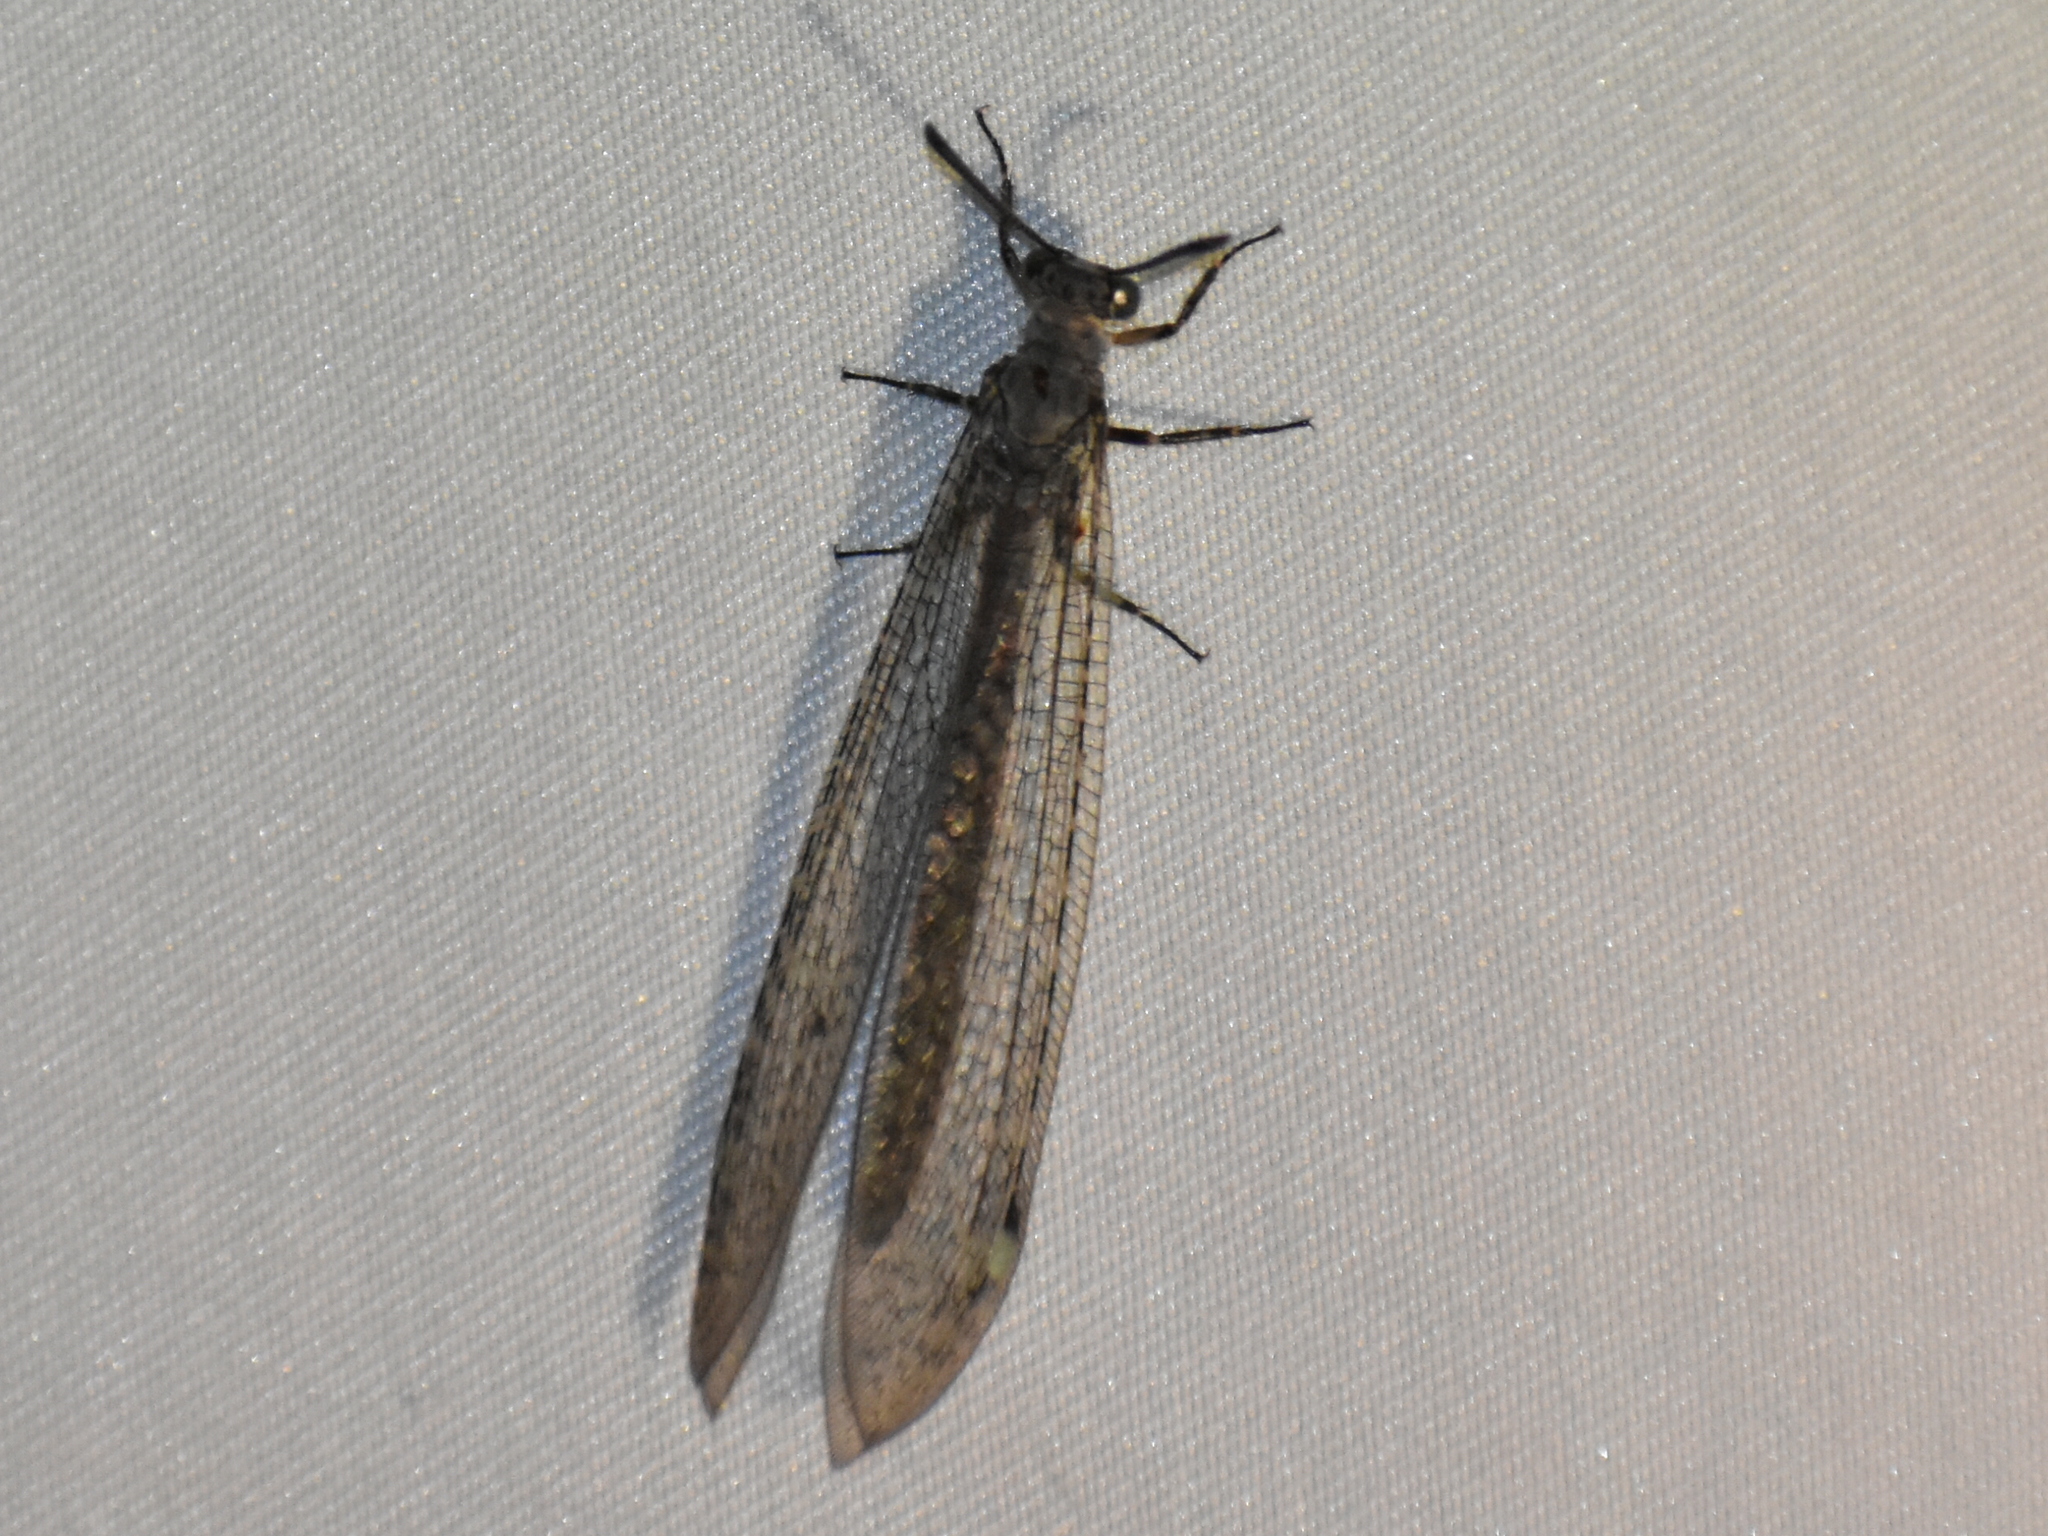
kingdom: Animalia
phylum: Arthropoda
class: Insecta
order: Neuroptera
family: Myrmeleontidae
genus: Myrmeleon
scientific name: Myrmeleon immaculatus
